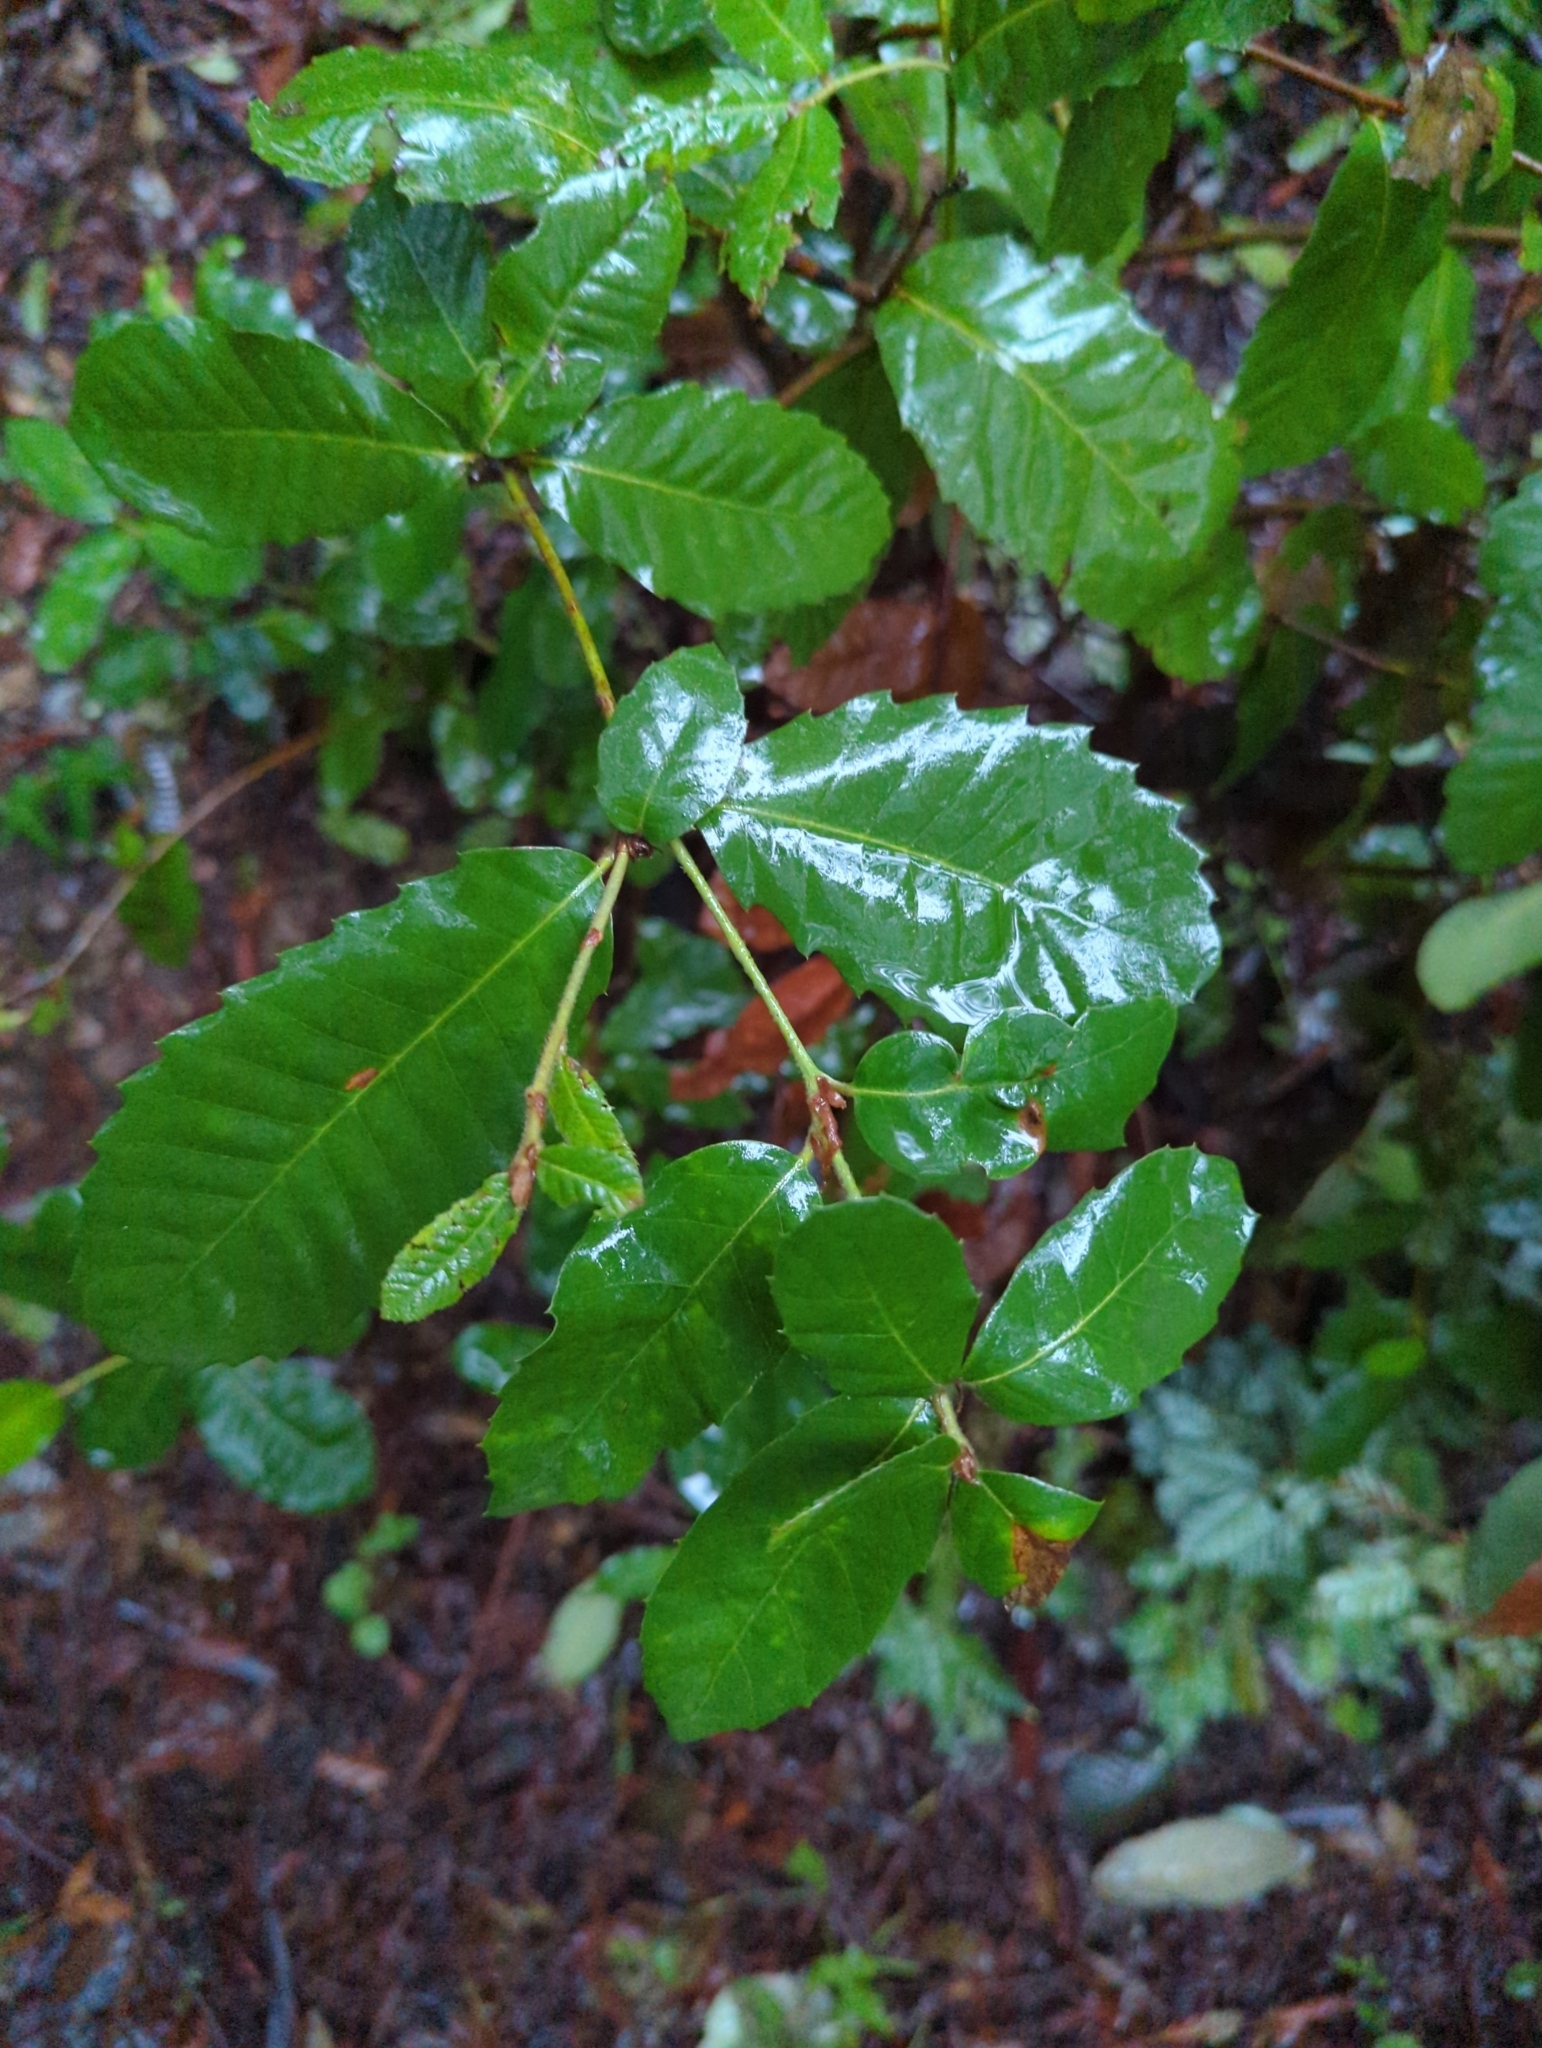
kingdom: Plantae
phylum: Tracheophyta
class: Magnoliopsida
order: Fagales
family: Fagaceae
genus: Notholithocarpus
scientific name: Notholithocarpus densiflorus
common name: Tan bark oak
